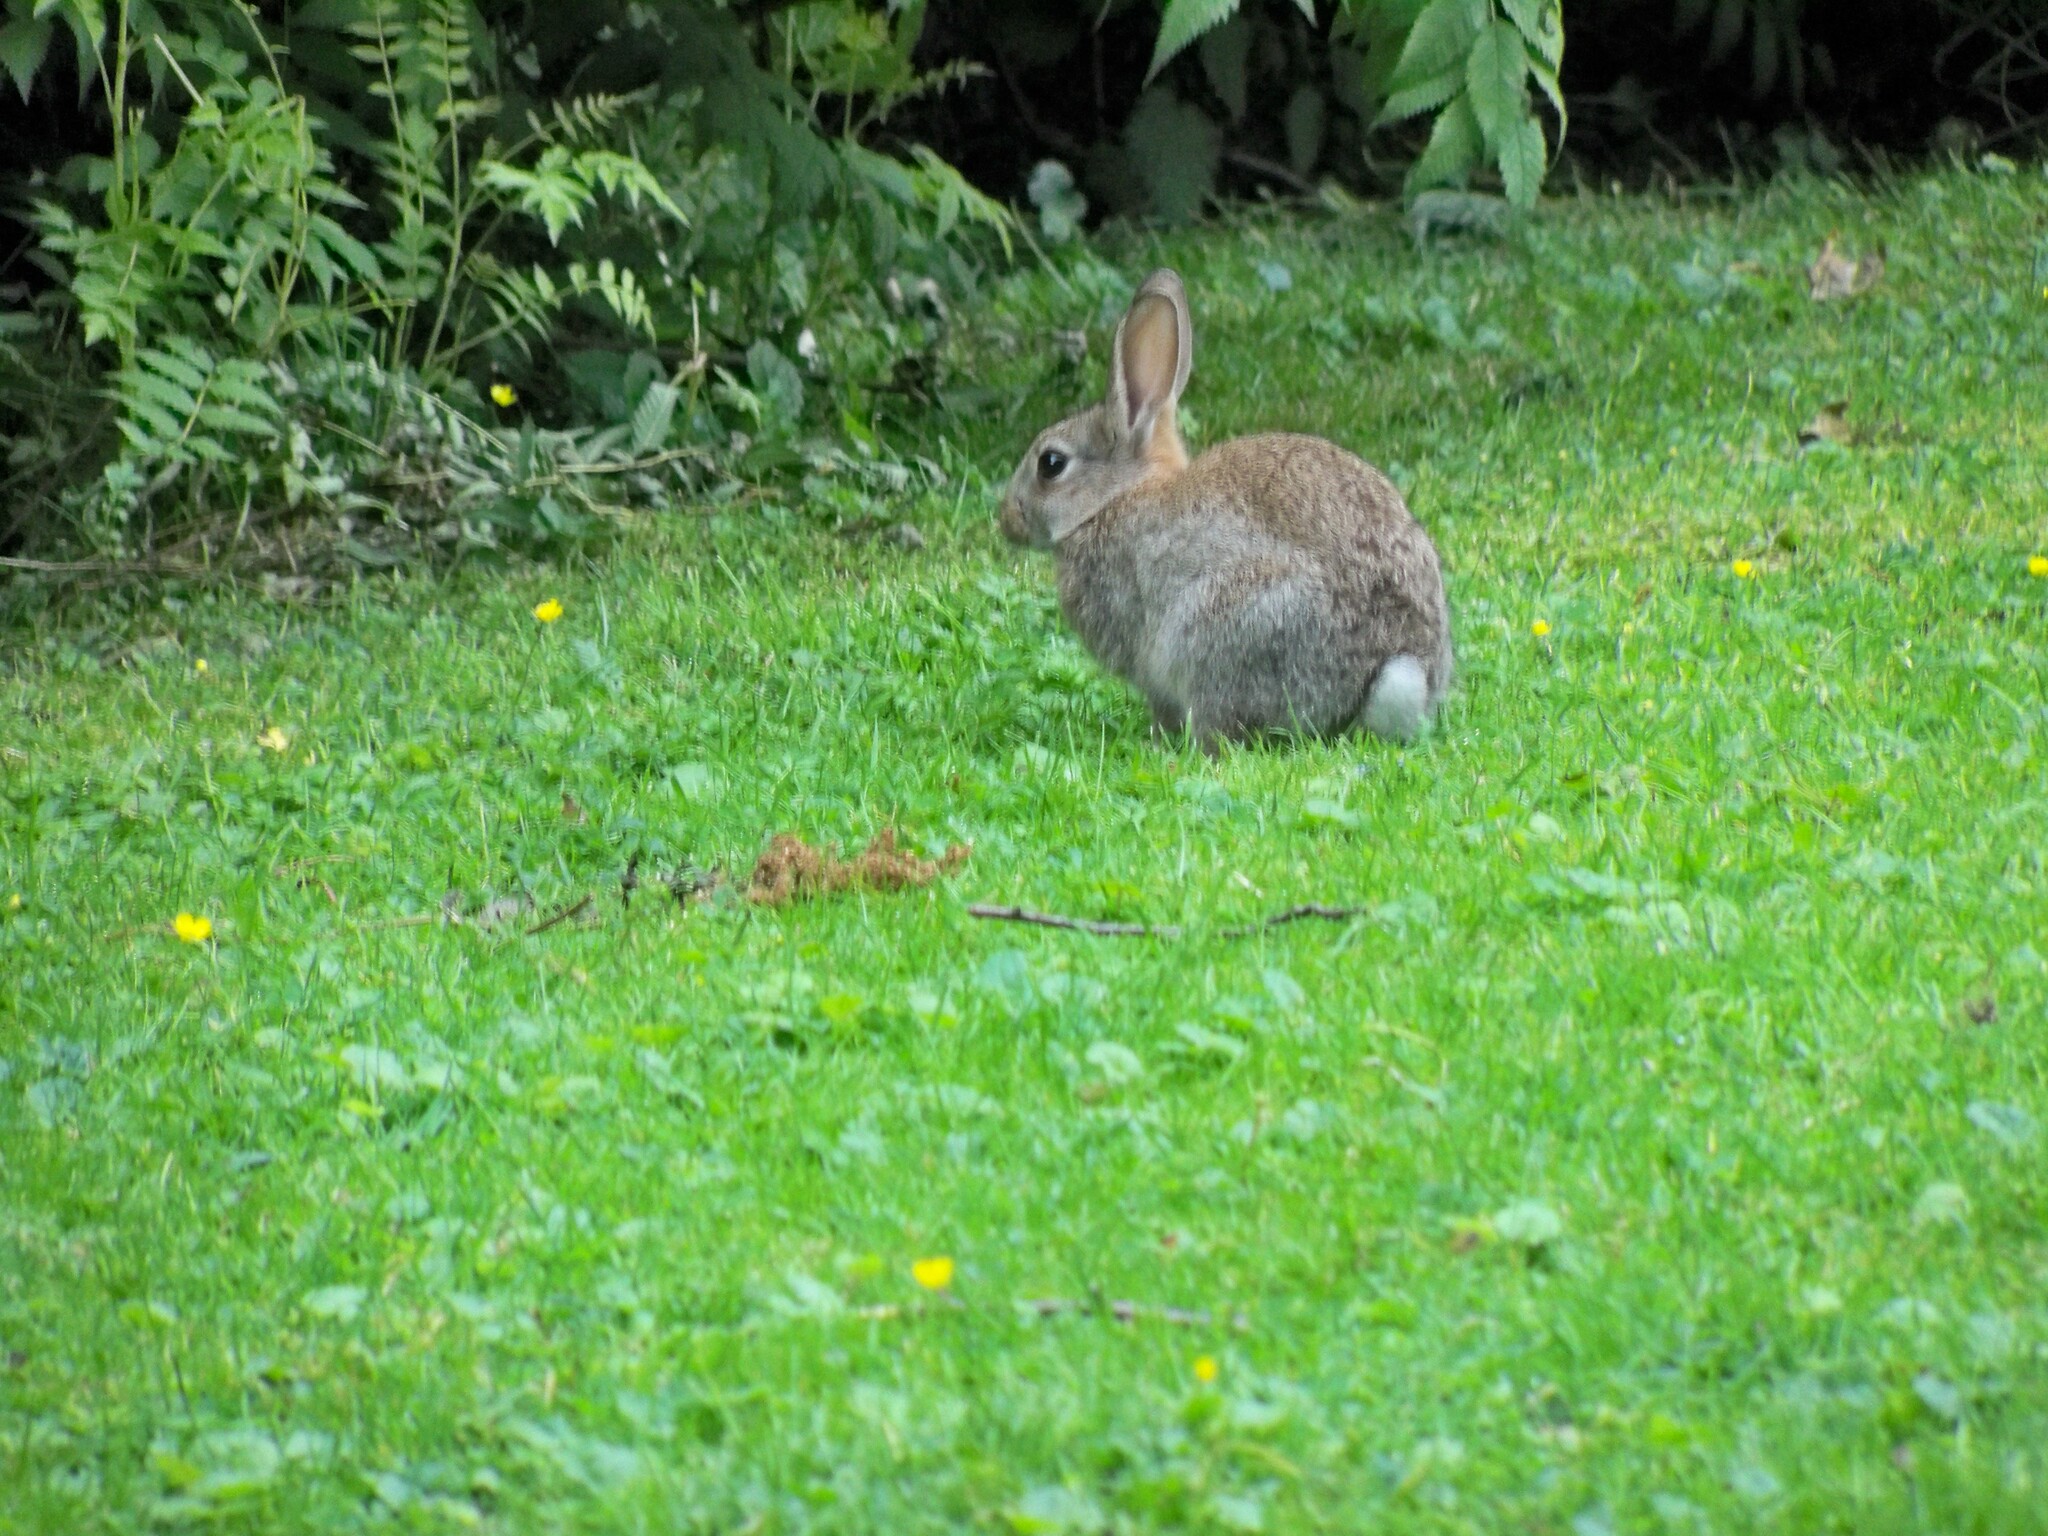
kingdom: Animalia
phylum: Chordata
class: Mammalia
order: Lagomorpha
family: Leporidae
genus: Oryctolagus
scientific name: Oryctolagus cuniculus
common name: European rabbit
